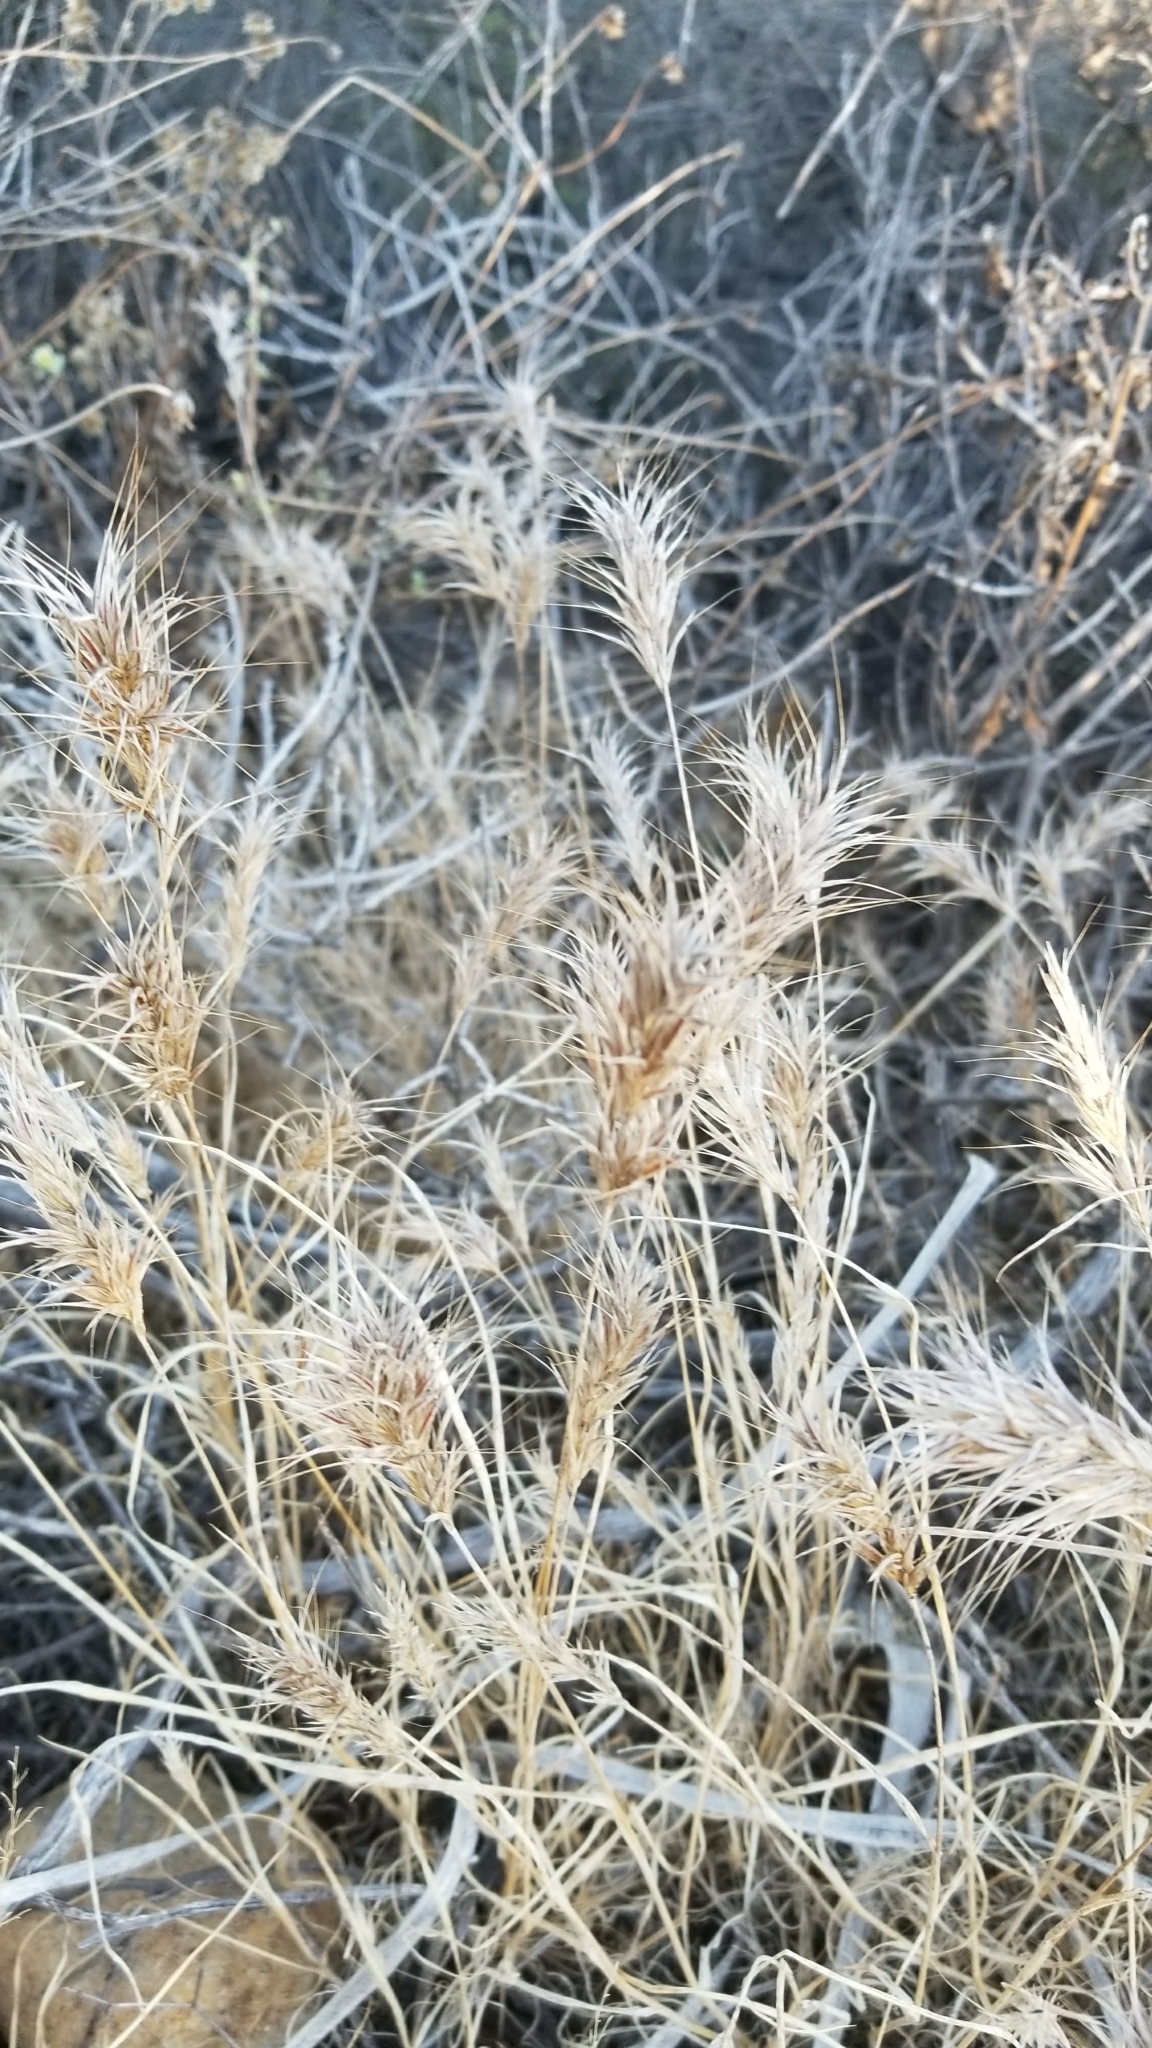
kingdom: Plantae
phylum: Tracheophyta
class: Liliopsida
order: Poales
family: Poaceae
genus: Bromus
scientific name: Bromus rubens
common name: Red brome
